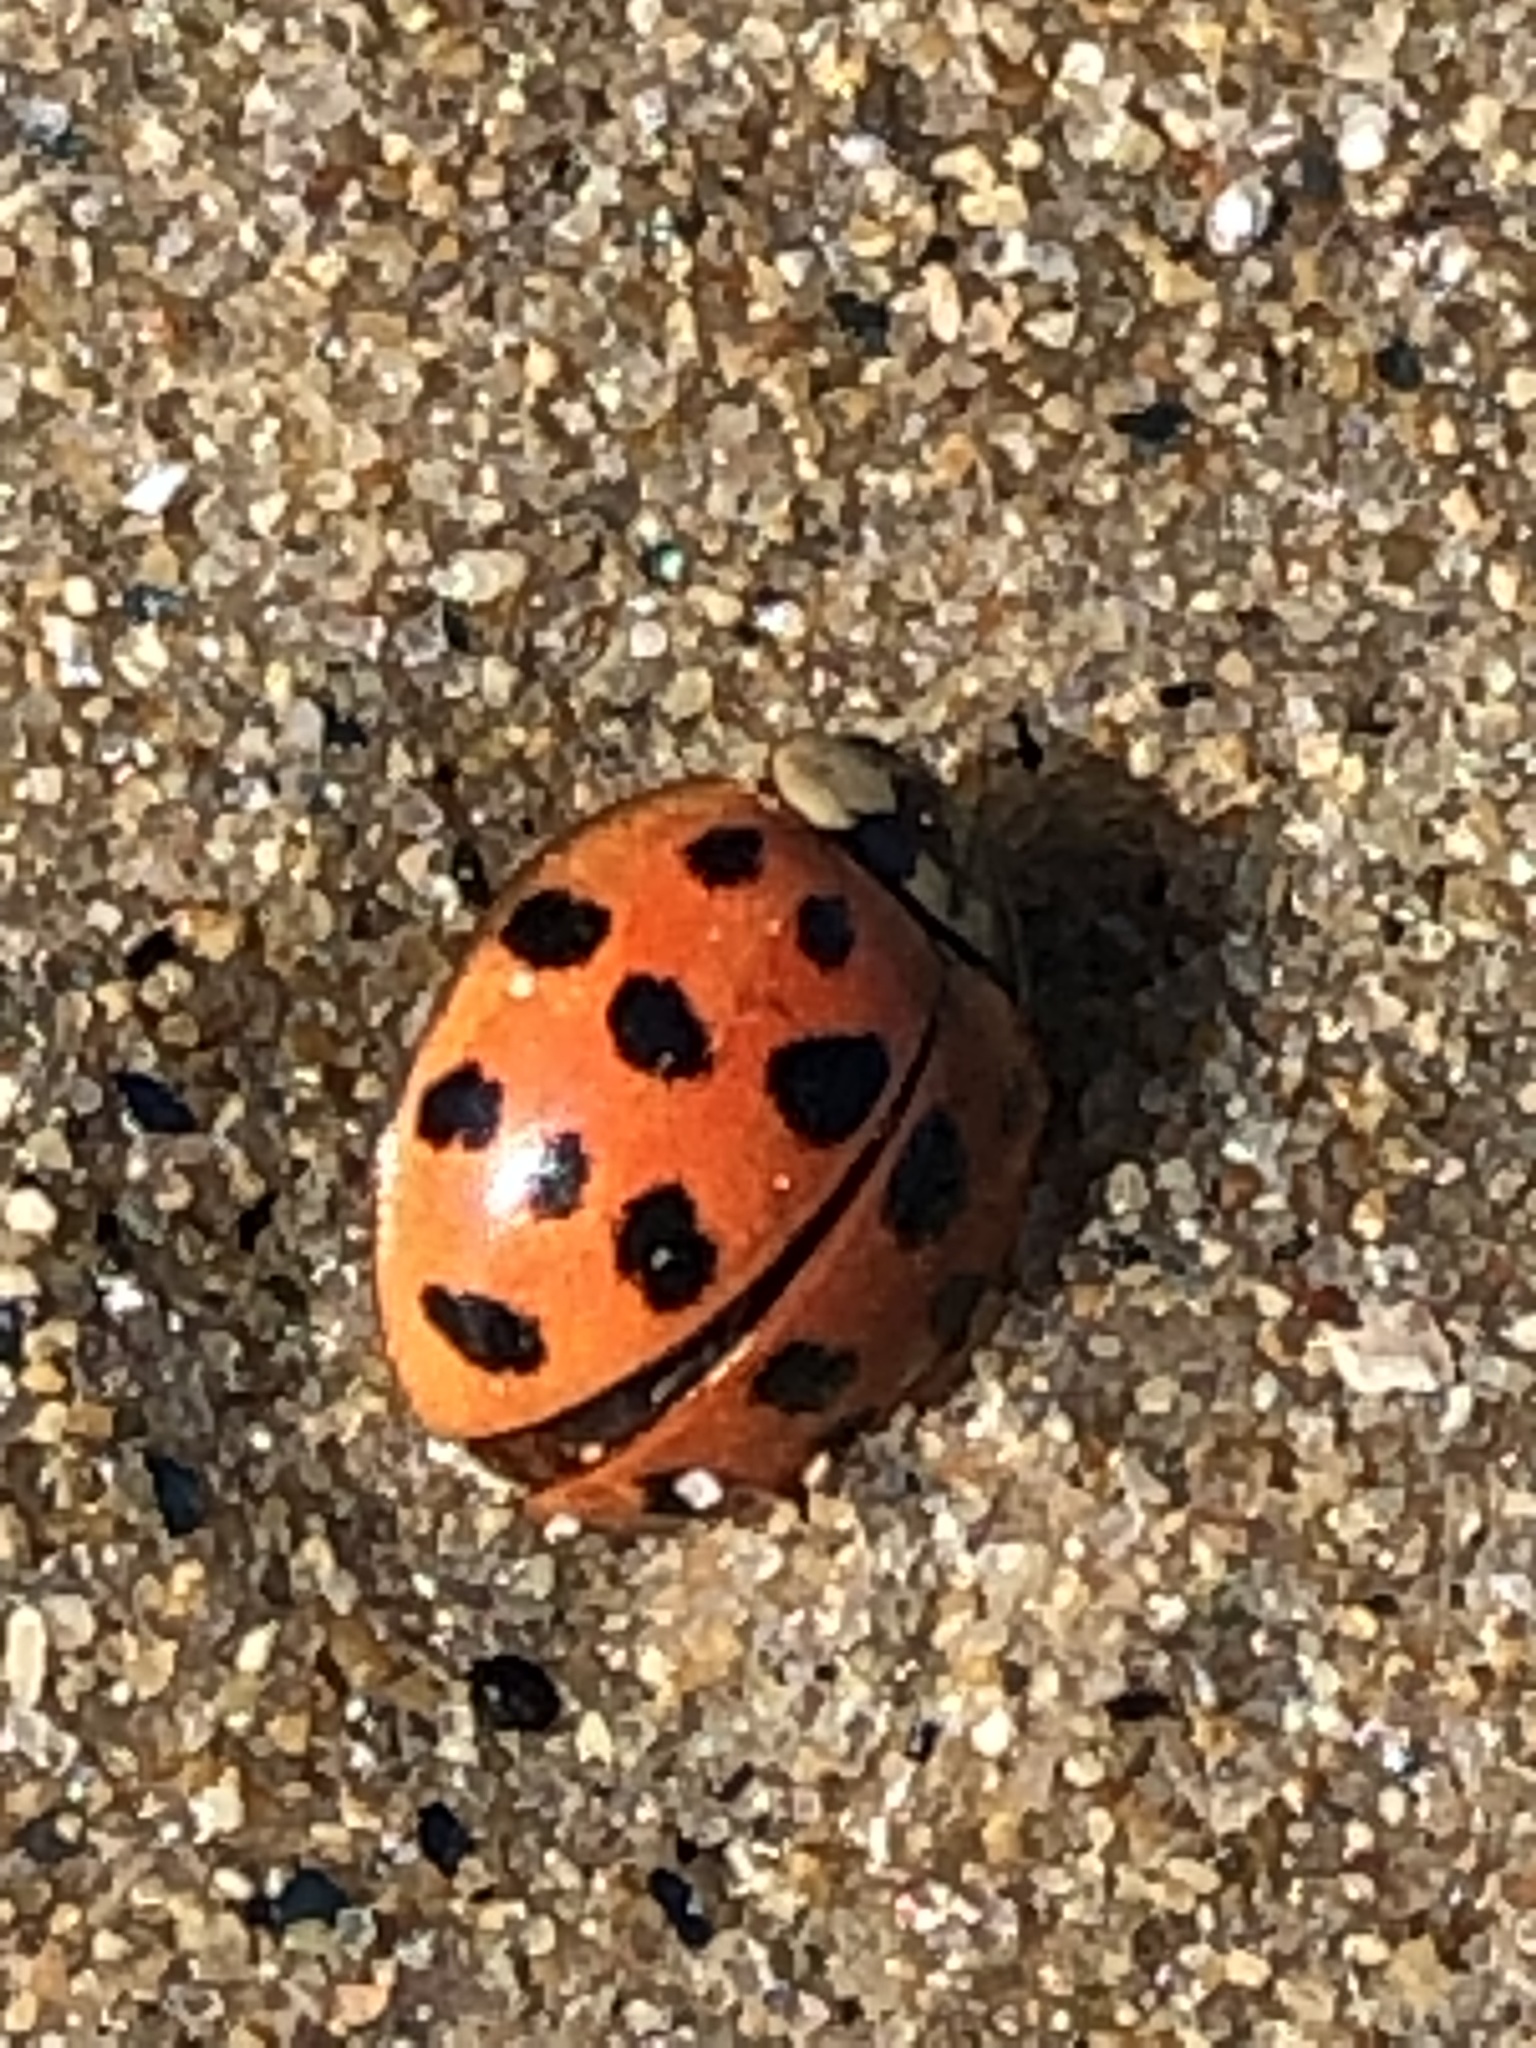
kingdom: Animalia
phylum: Arthropoda
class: Insecta
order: Coleoptera
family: Coccinellidae
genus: Harmonia
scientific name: Harmonia axyridis
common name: Harlequin ladybird
